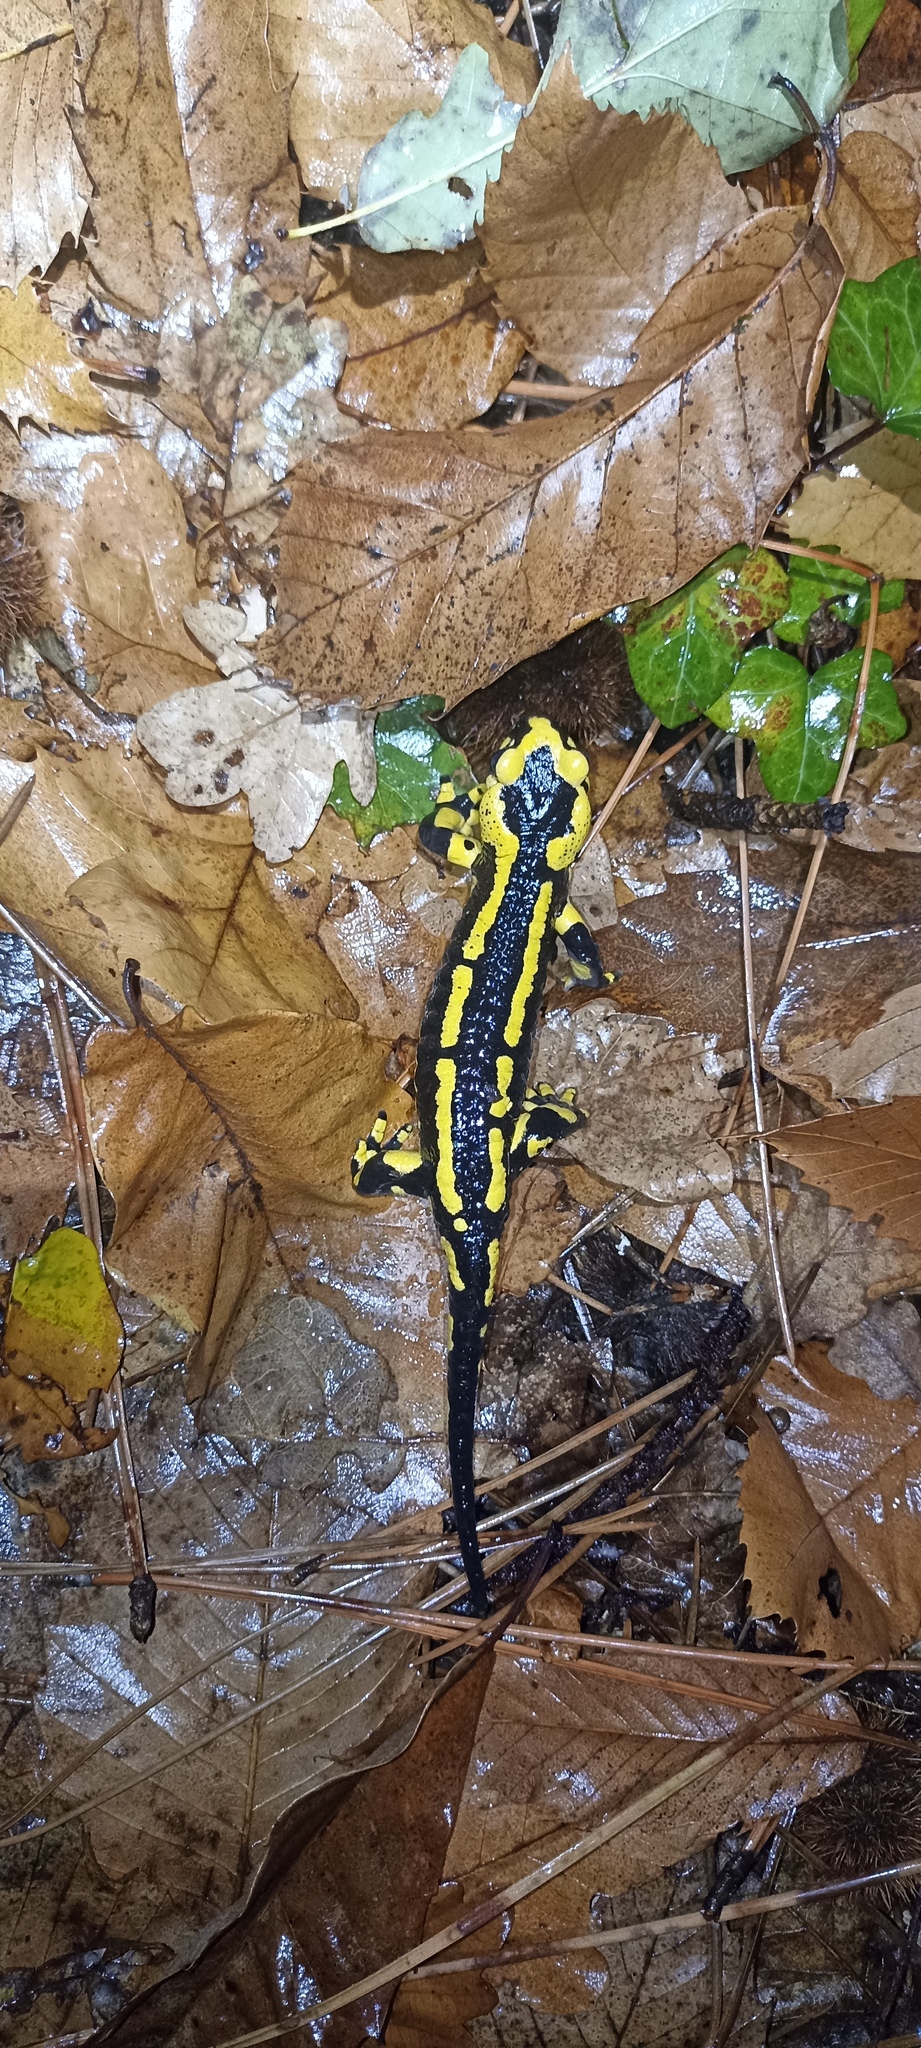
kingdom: Animalia
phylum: Chordata
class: Amphibia
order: Caudata
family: Salamandridae
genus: Salamandra
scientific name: Salamandra salamandra
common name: Fire salamander
